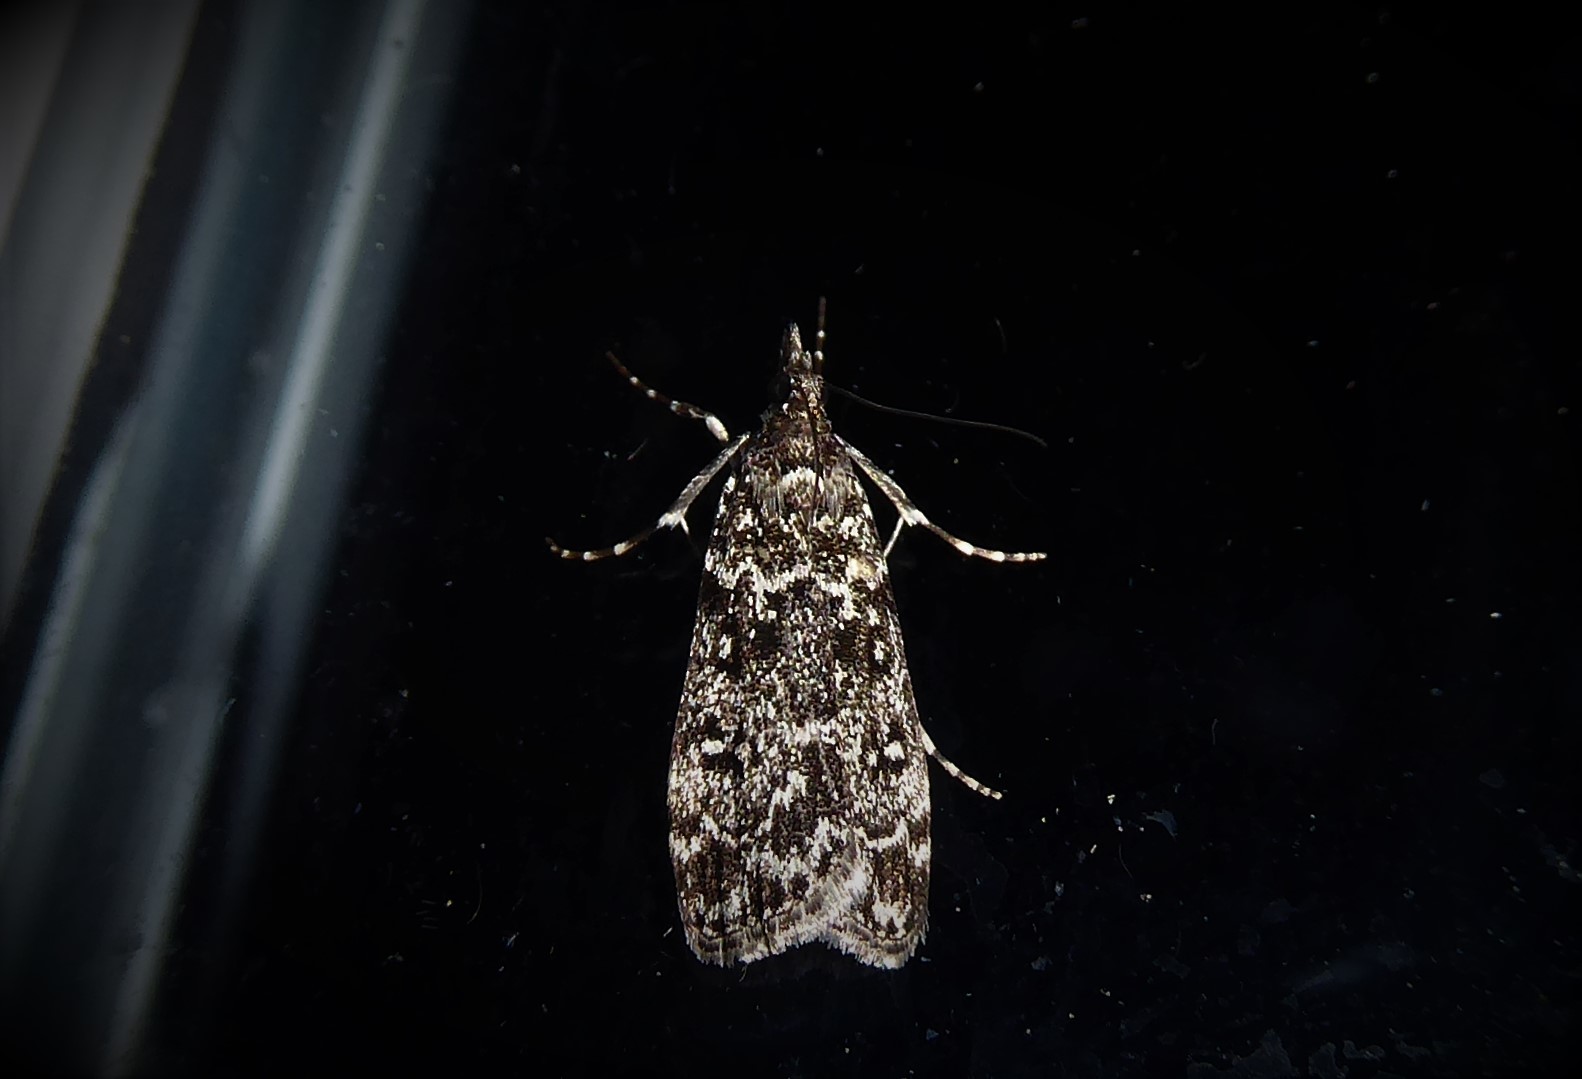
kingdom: Animalia
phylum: Arthropoda
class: Insecta
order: Lepidoptera
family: Crambidae
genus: Eudonia
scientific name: Eudonia philerga
